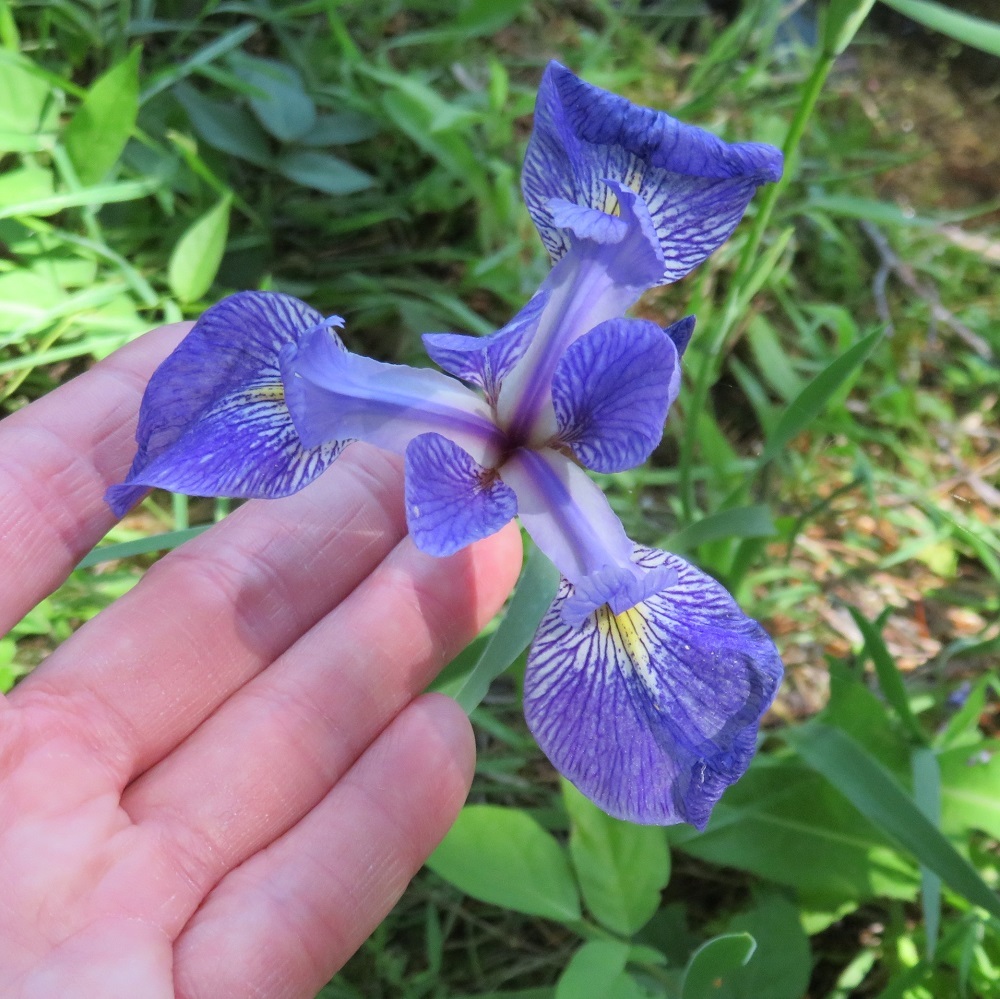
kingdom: Plantae
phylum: Tracheophyta
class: Liliopsida
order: Asparagales
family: Iridaceae
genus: Iris
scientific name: Iris versicolor
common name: Purple iris
